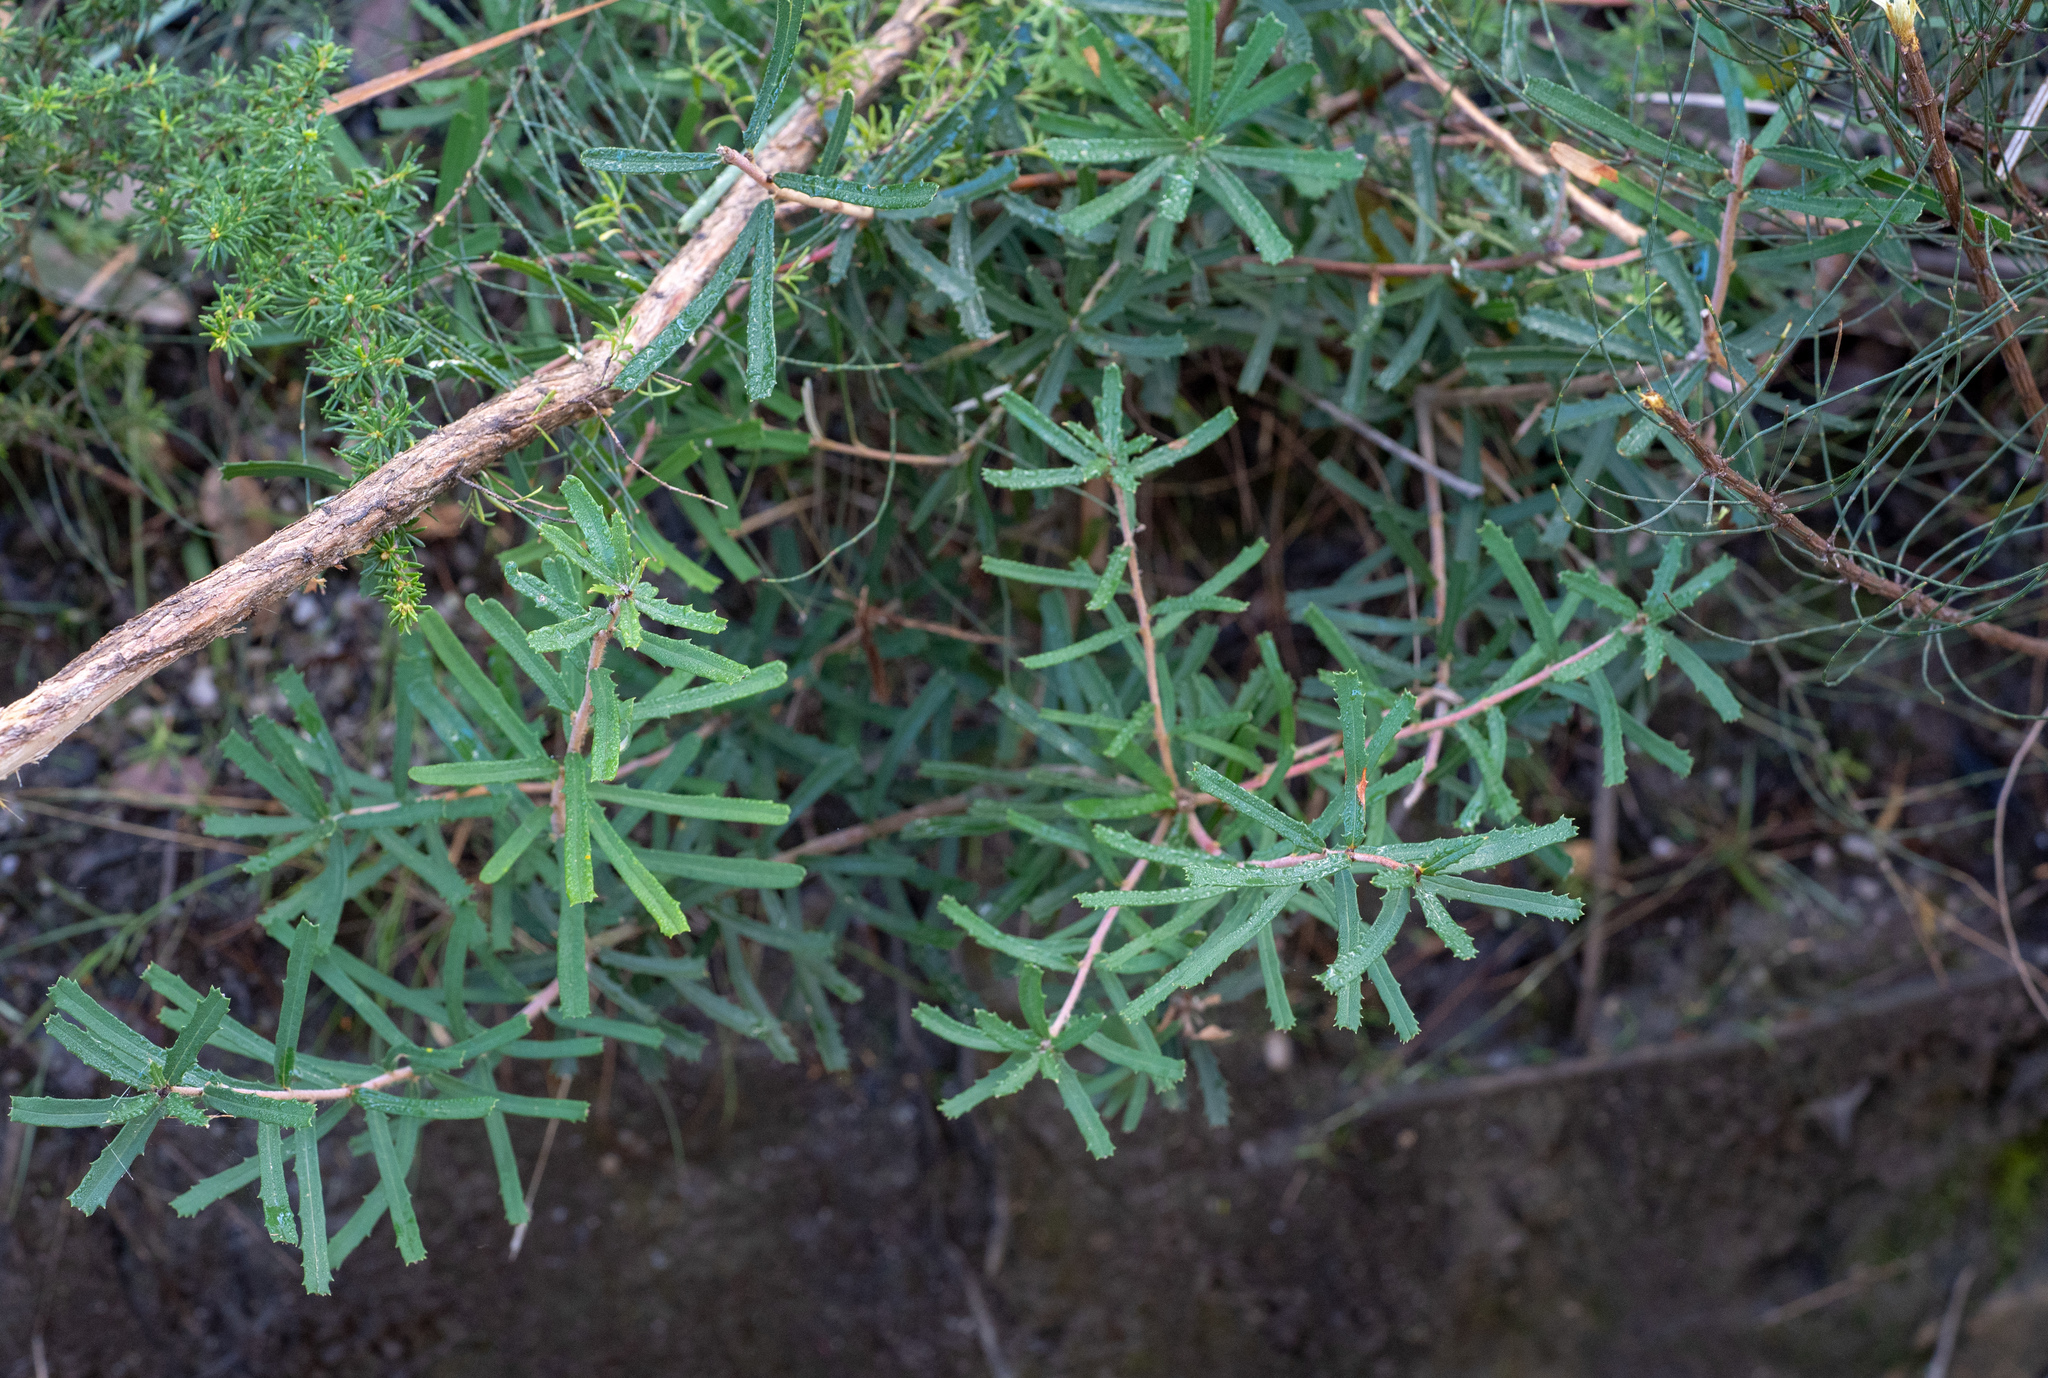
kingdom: Plantae
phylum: Tracheophyta
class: Magnoliopsida
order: Proteales
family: Proteaceae
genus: Banksia
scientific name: Banksia marginata
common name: Silver banksia
